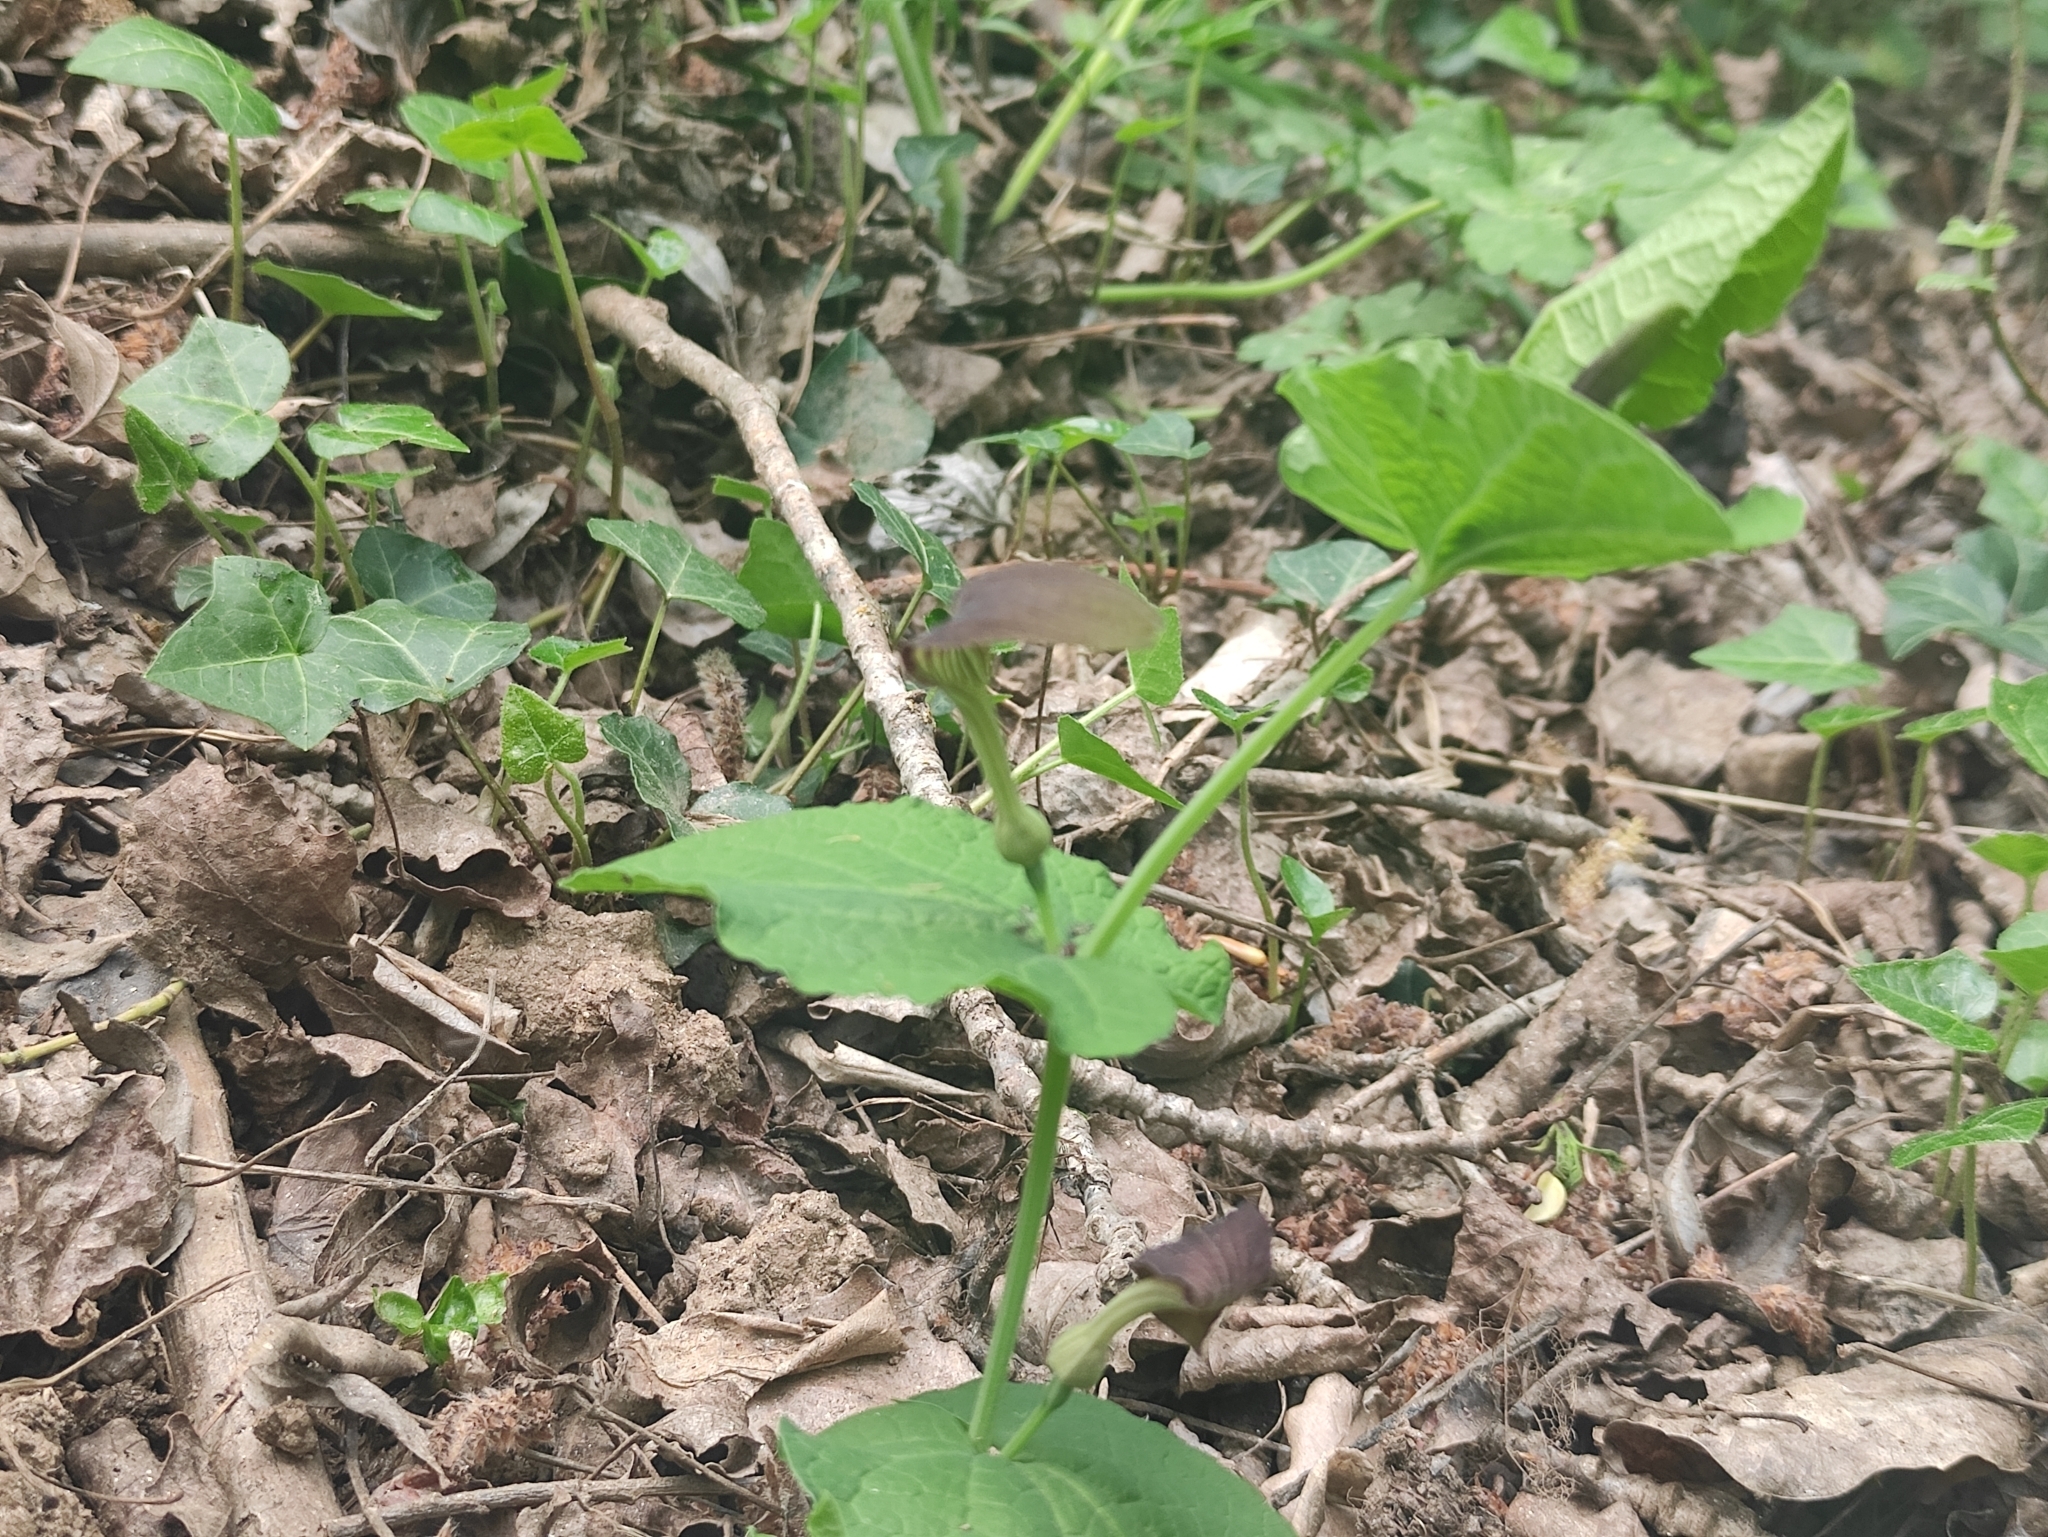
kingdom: Plantae
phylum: Tracheophyta
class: Magnoliopsida
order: Piperales
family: Aristolochiaceae
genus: Aristolochia
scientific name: Aristolochia rotunda
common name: Smearwort
